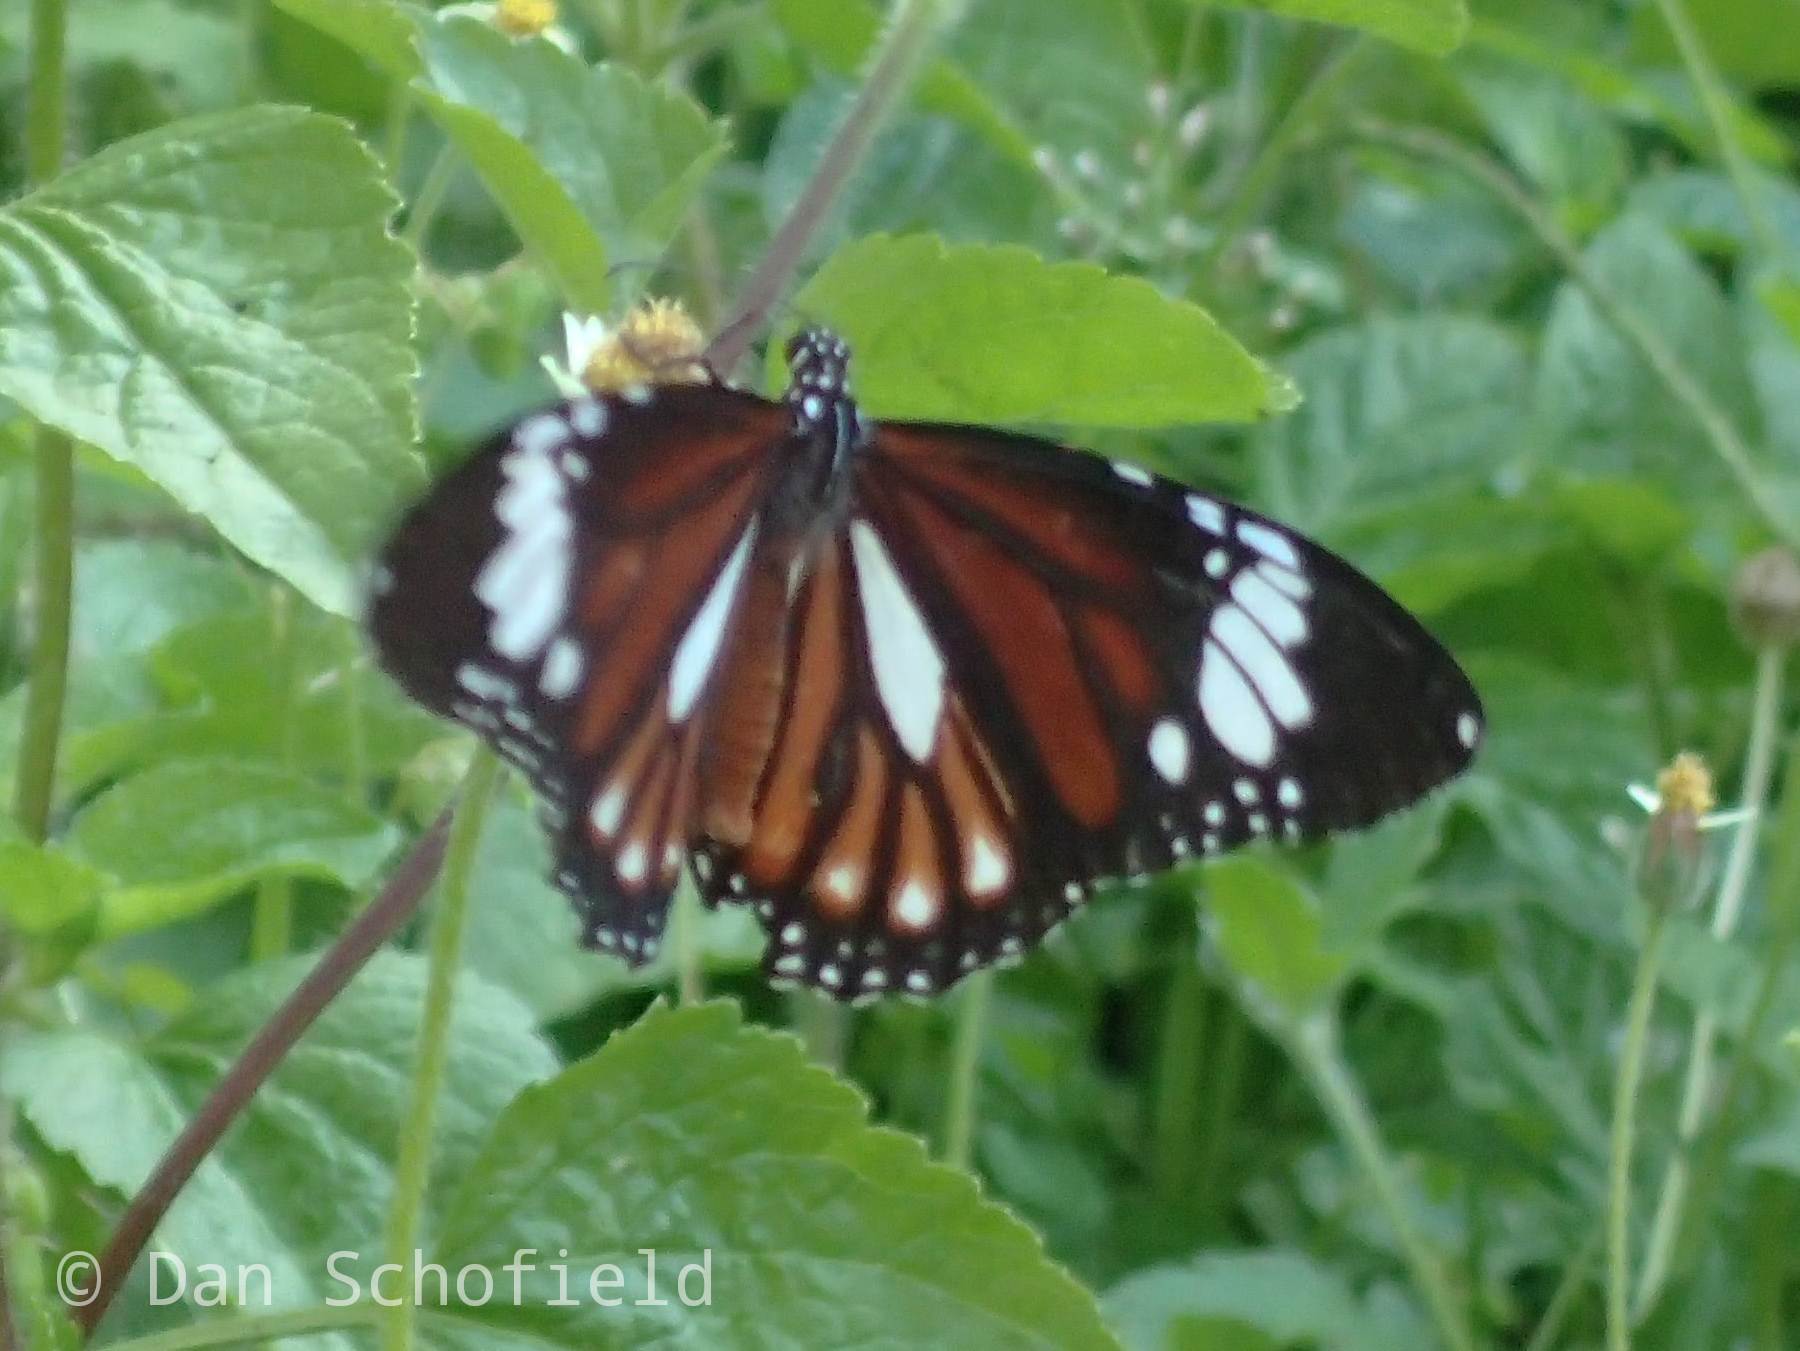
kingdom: Animalia
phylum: Arthropoda
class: Insecta
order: Lepidoptera
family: Nymphalidae
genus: Danaus
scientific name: Danaus genutia
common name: Common tiger butterfly
